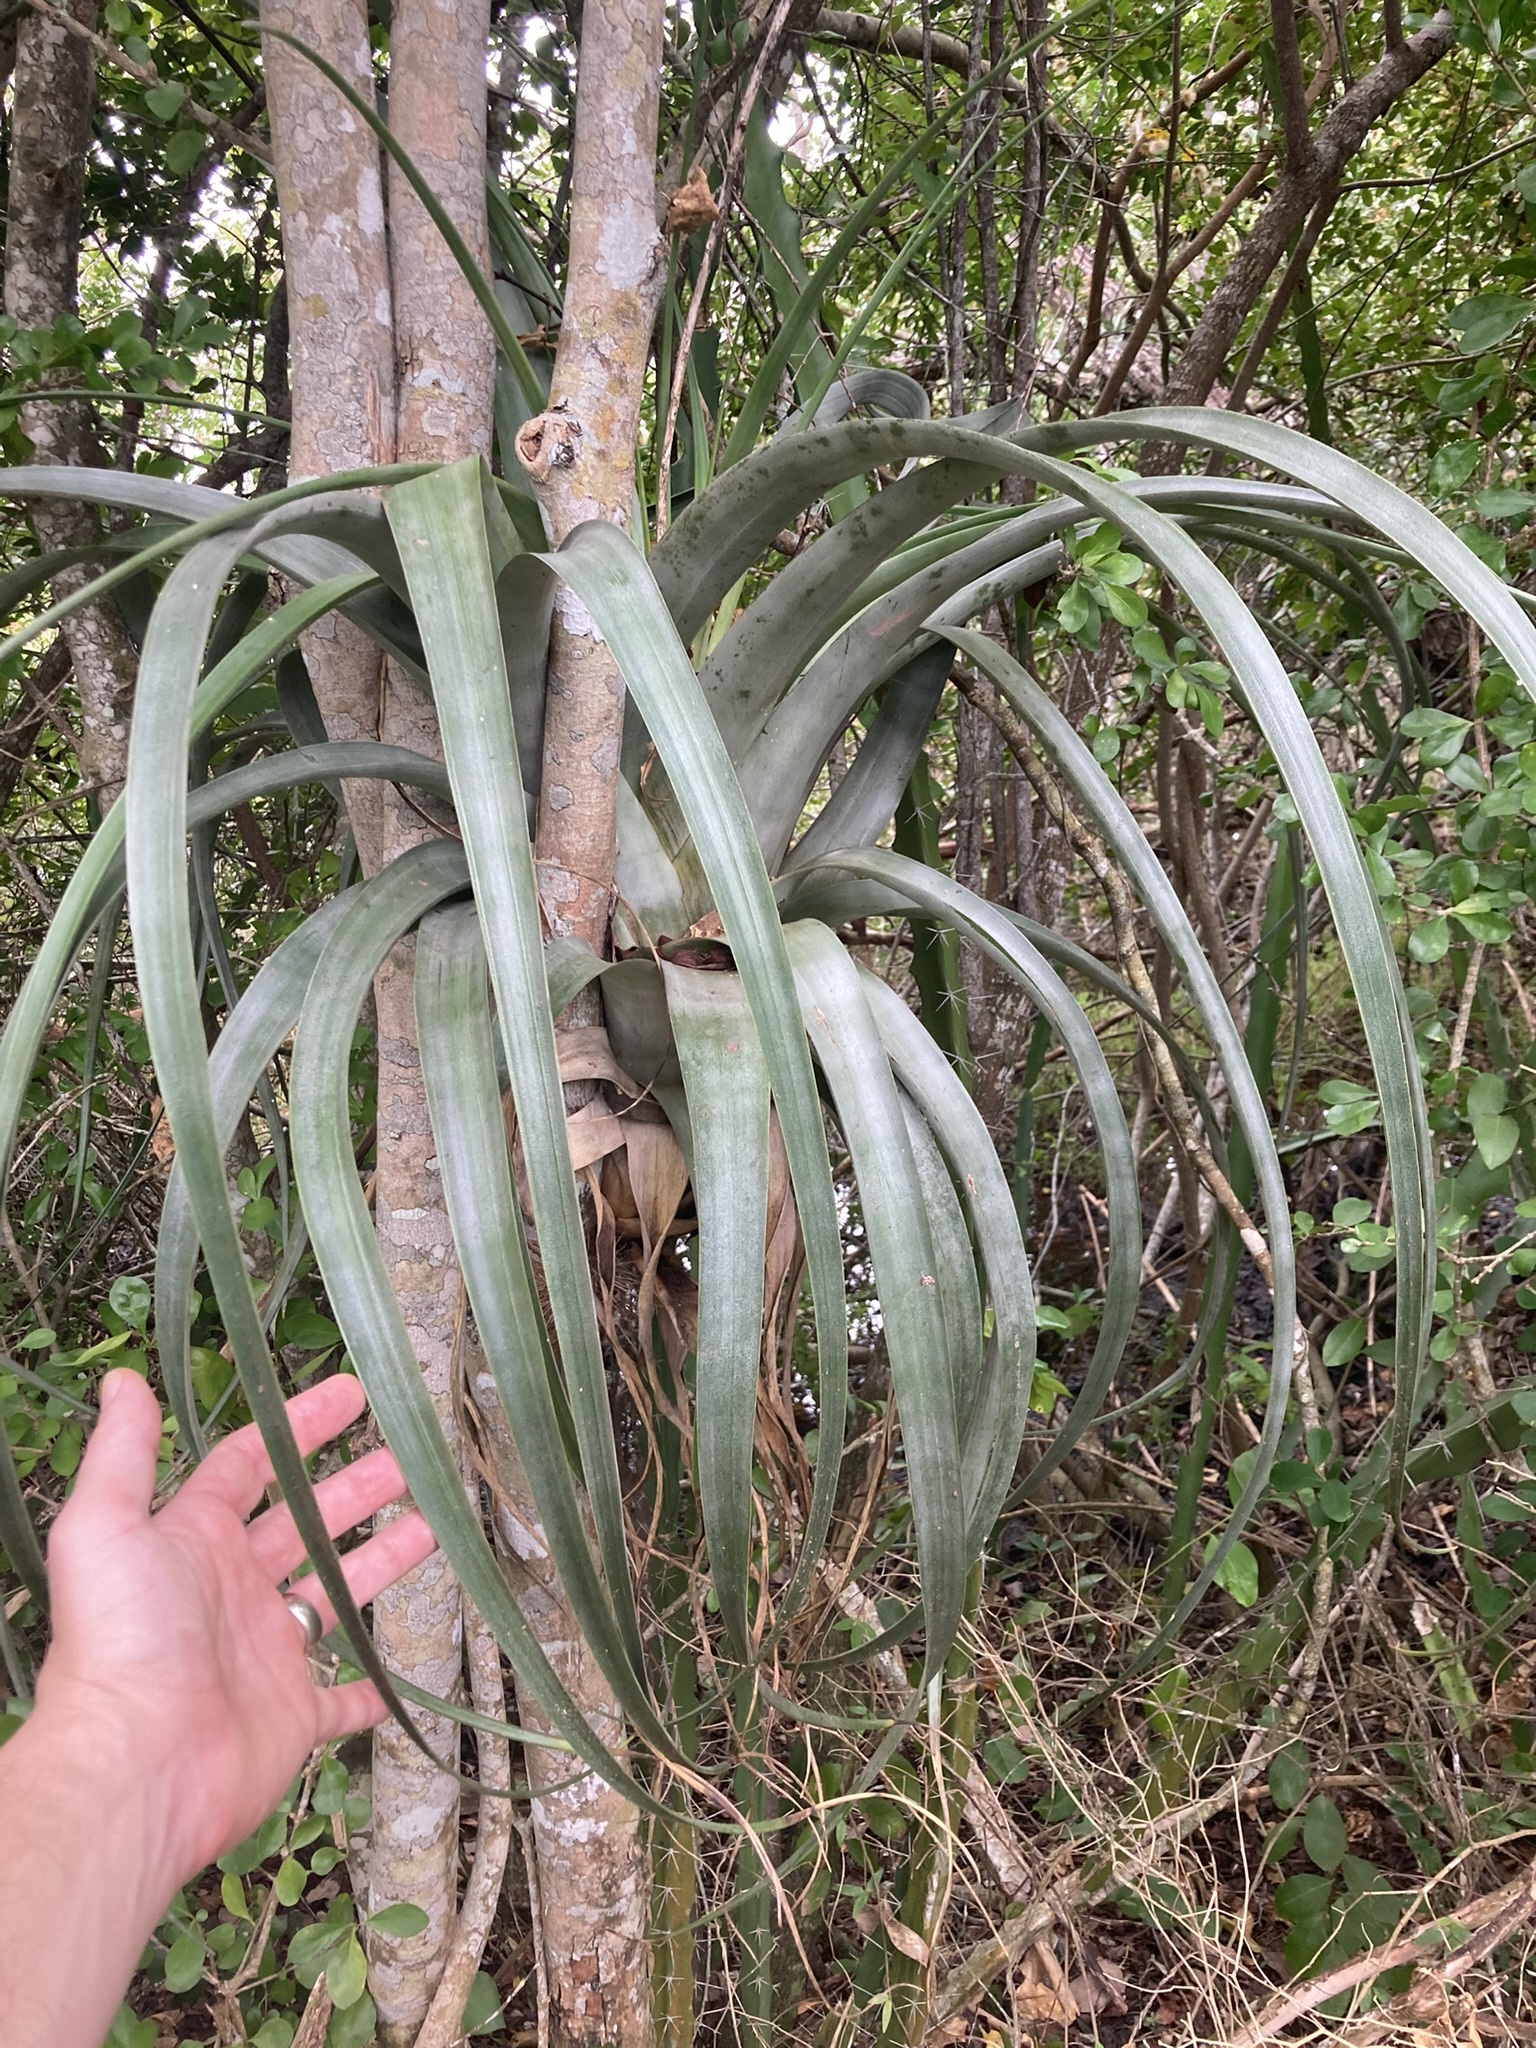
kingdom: Plantae
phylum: Tracheophyta
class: Liliopsida
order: Poales
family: Bromeliaceae
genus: Tillandsia
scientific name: Tillandsia utriculata
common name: Wild pine
